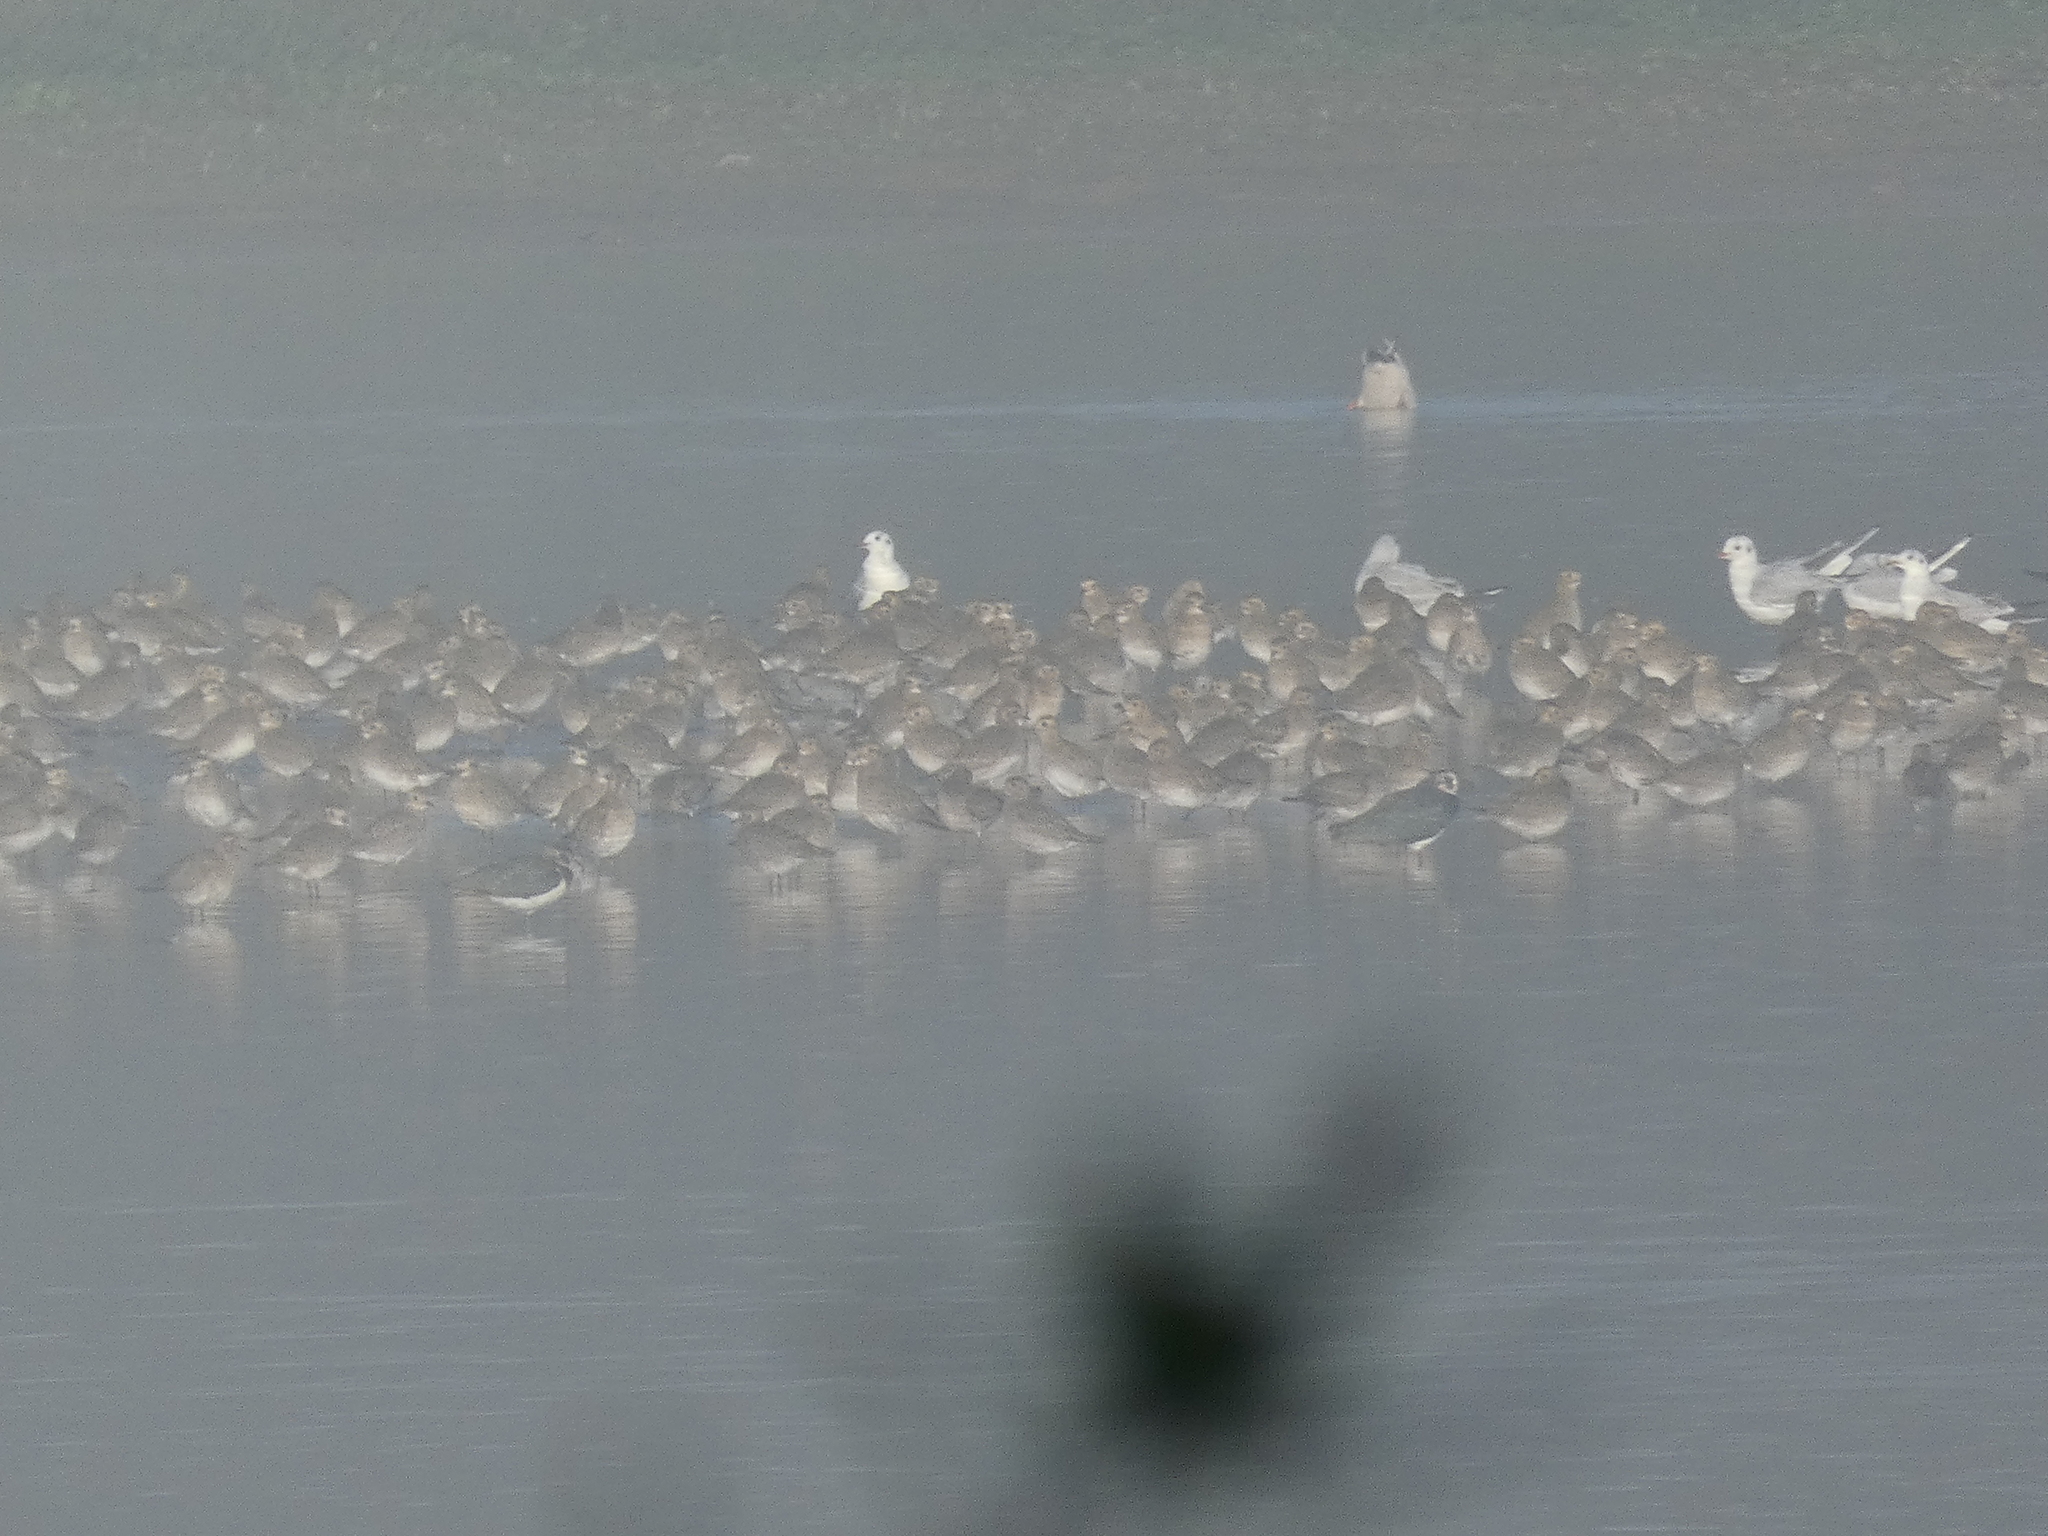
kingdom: Animalia
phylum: Chordata
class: Aves
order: Charadriiformes
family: Charadriidae
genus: Vanellus
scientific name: Vanellus vanellus
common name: Northern lapwing
